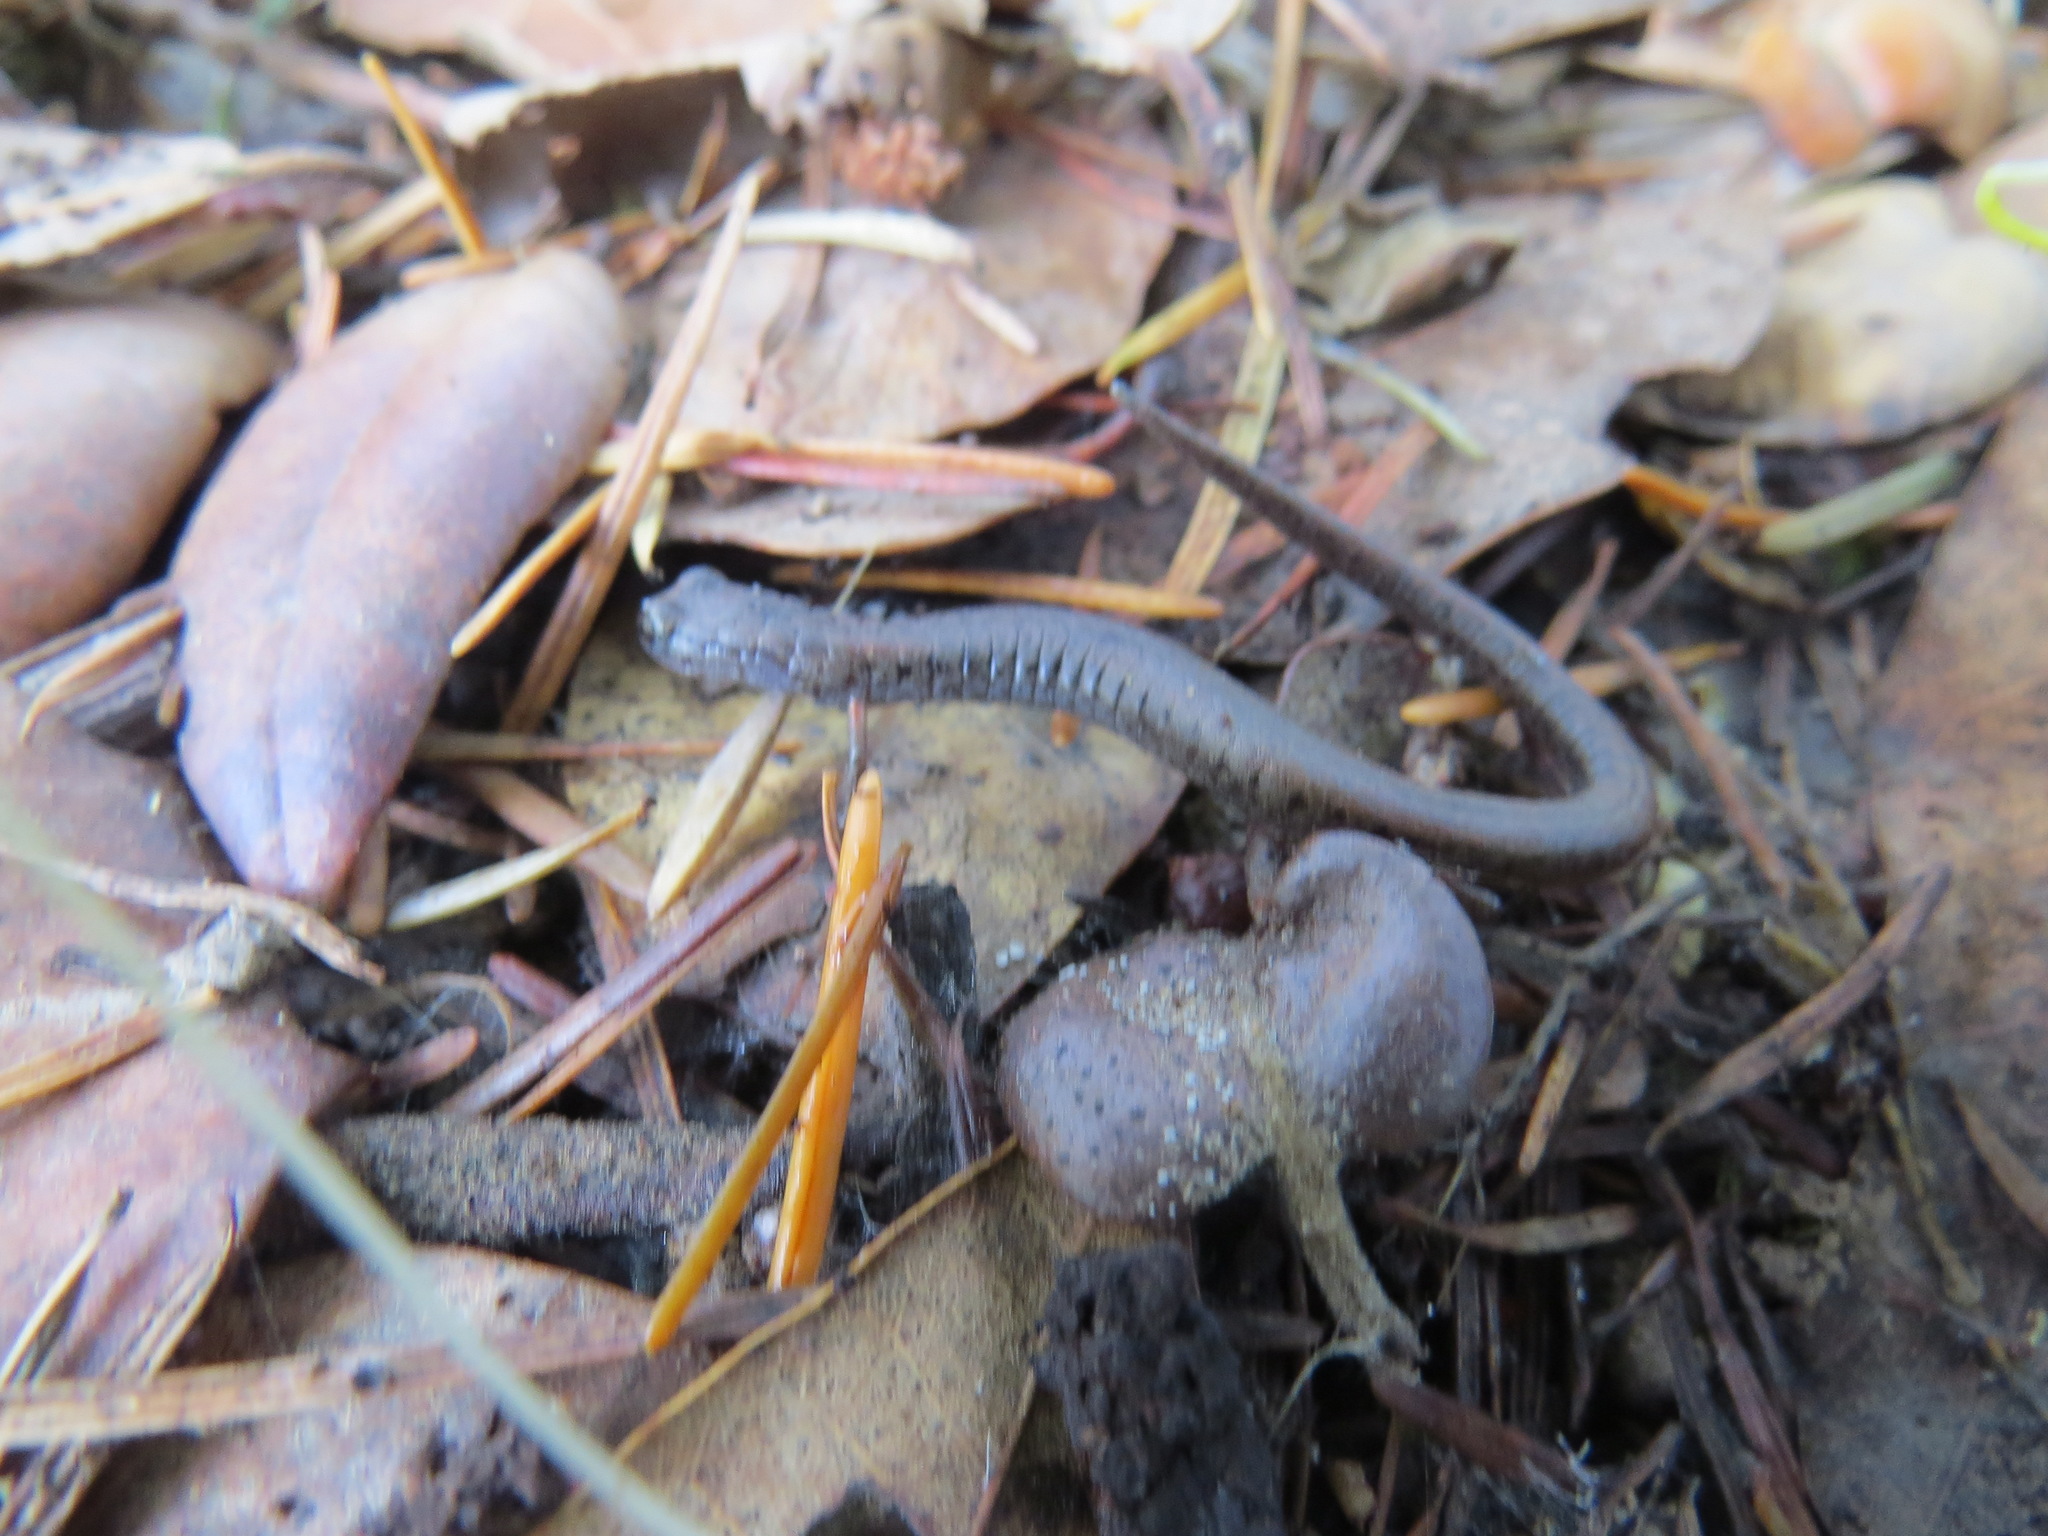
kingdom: Animalia
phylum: Chordata
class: Amphibia
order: Caudata
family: Plethodontidae
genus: Batrachoseps
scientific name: Batrachoseps attenuatus
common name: California slender salamander
